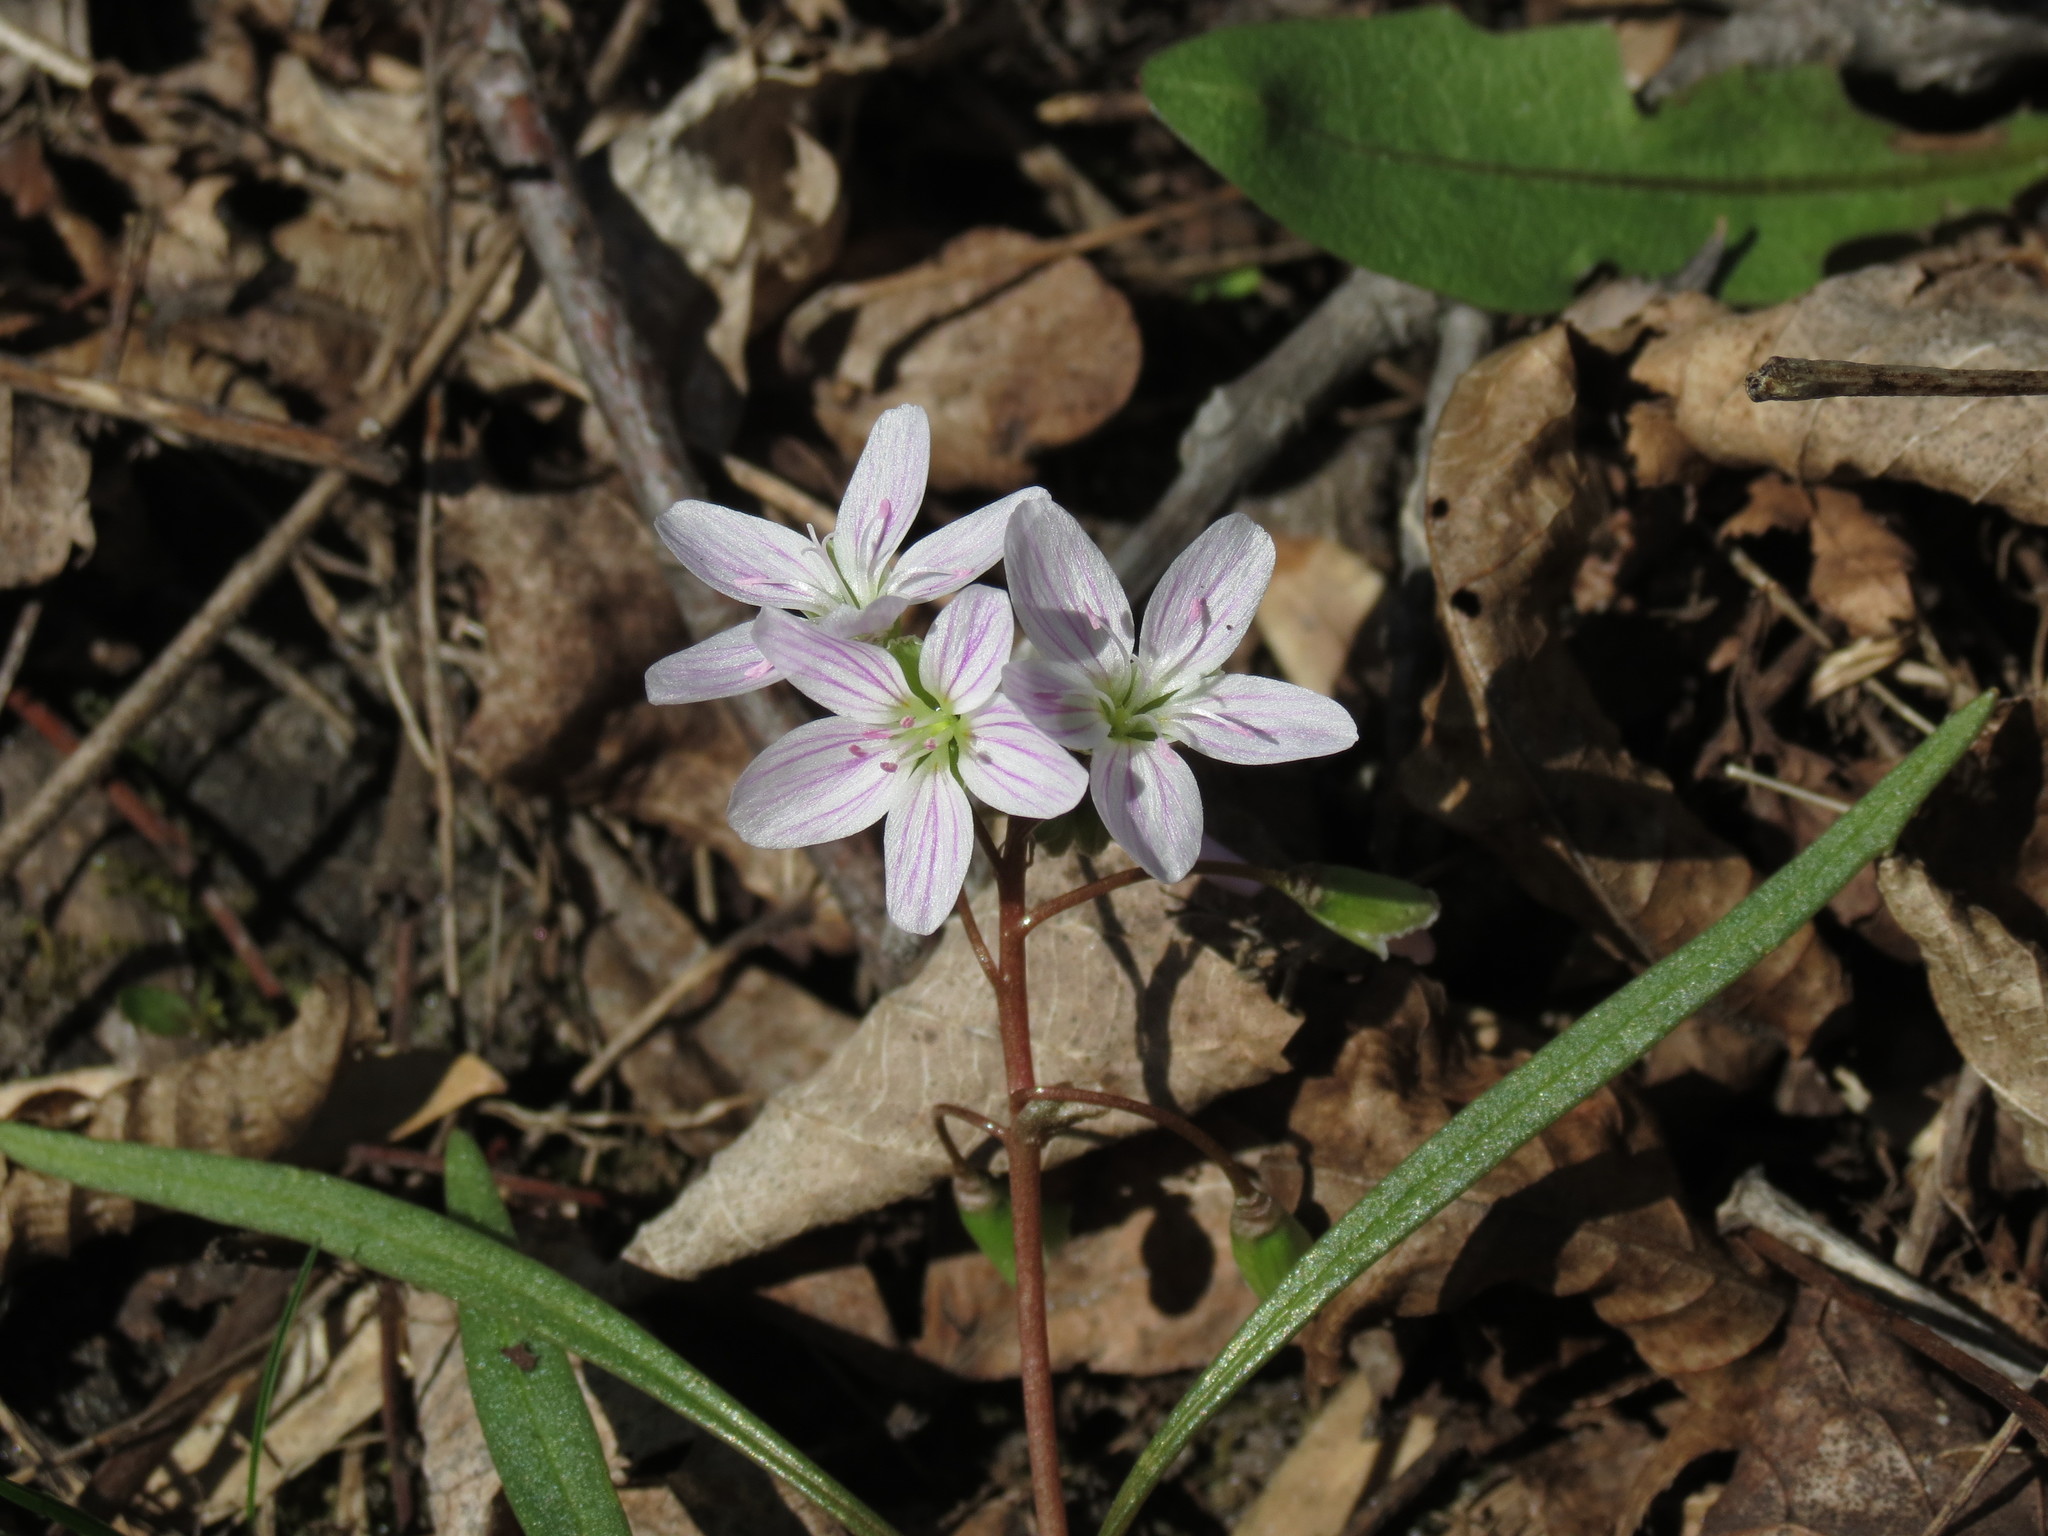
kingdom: Plantae
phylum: Tracheophyta
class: Magnoliopsida
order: Caryophyllales
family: Montiaceae
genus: Claytonia
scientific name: Claytonia virginica
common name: Virginia springbeauty
